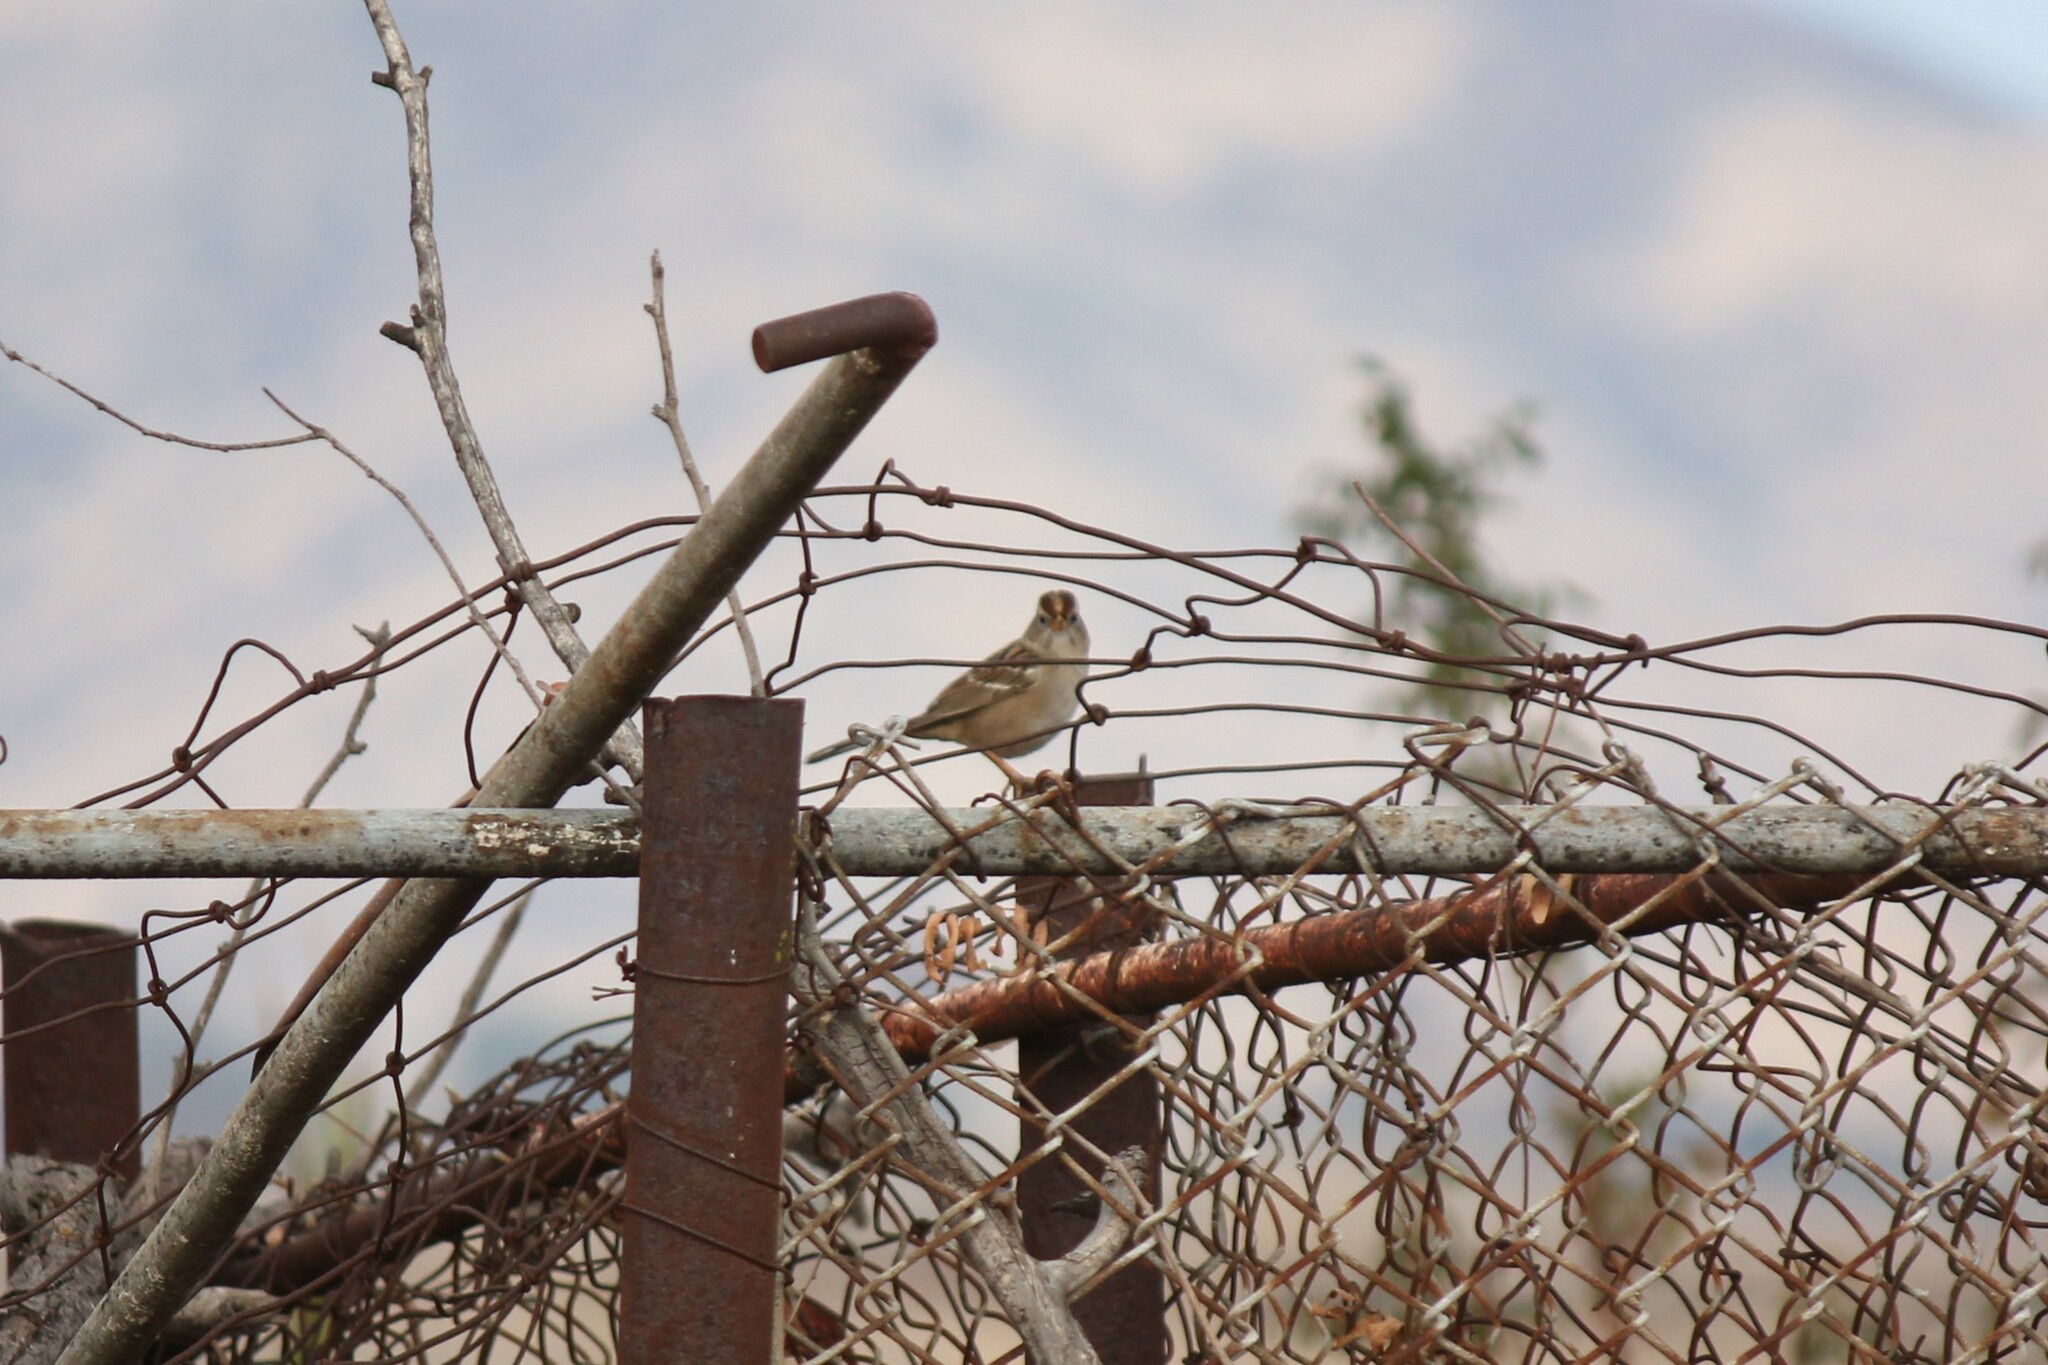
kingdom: Animalia
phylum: Chordata
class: Aves
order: Passeriformes
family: Passerellidae
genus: Zonotrichia
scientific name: Zonotrichia leucophrys
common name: White-crowned sparrow
